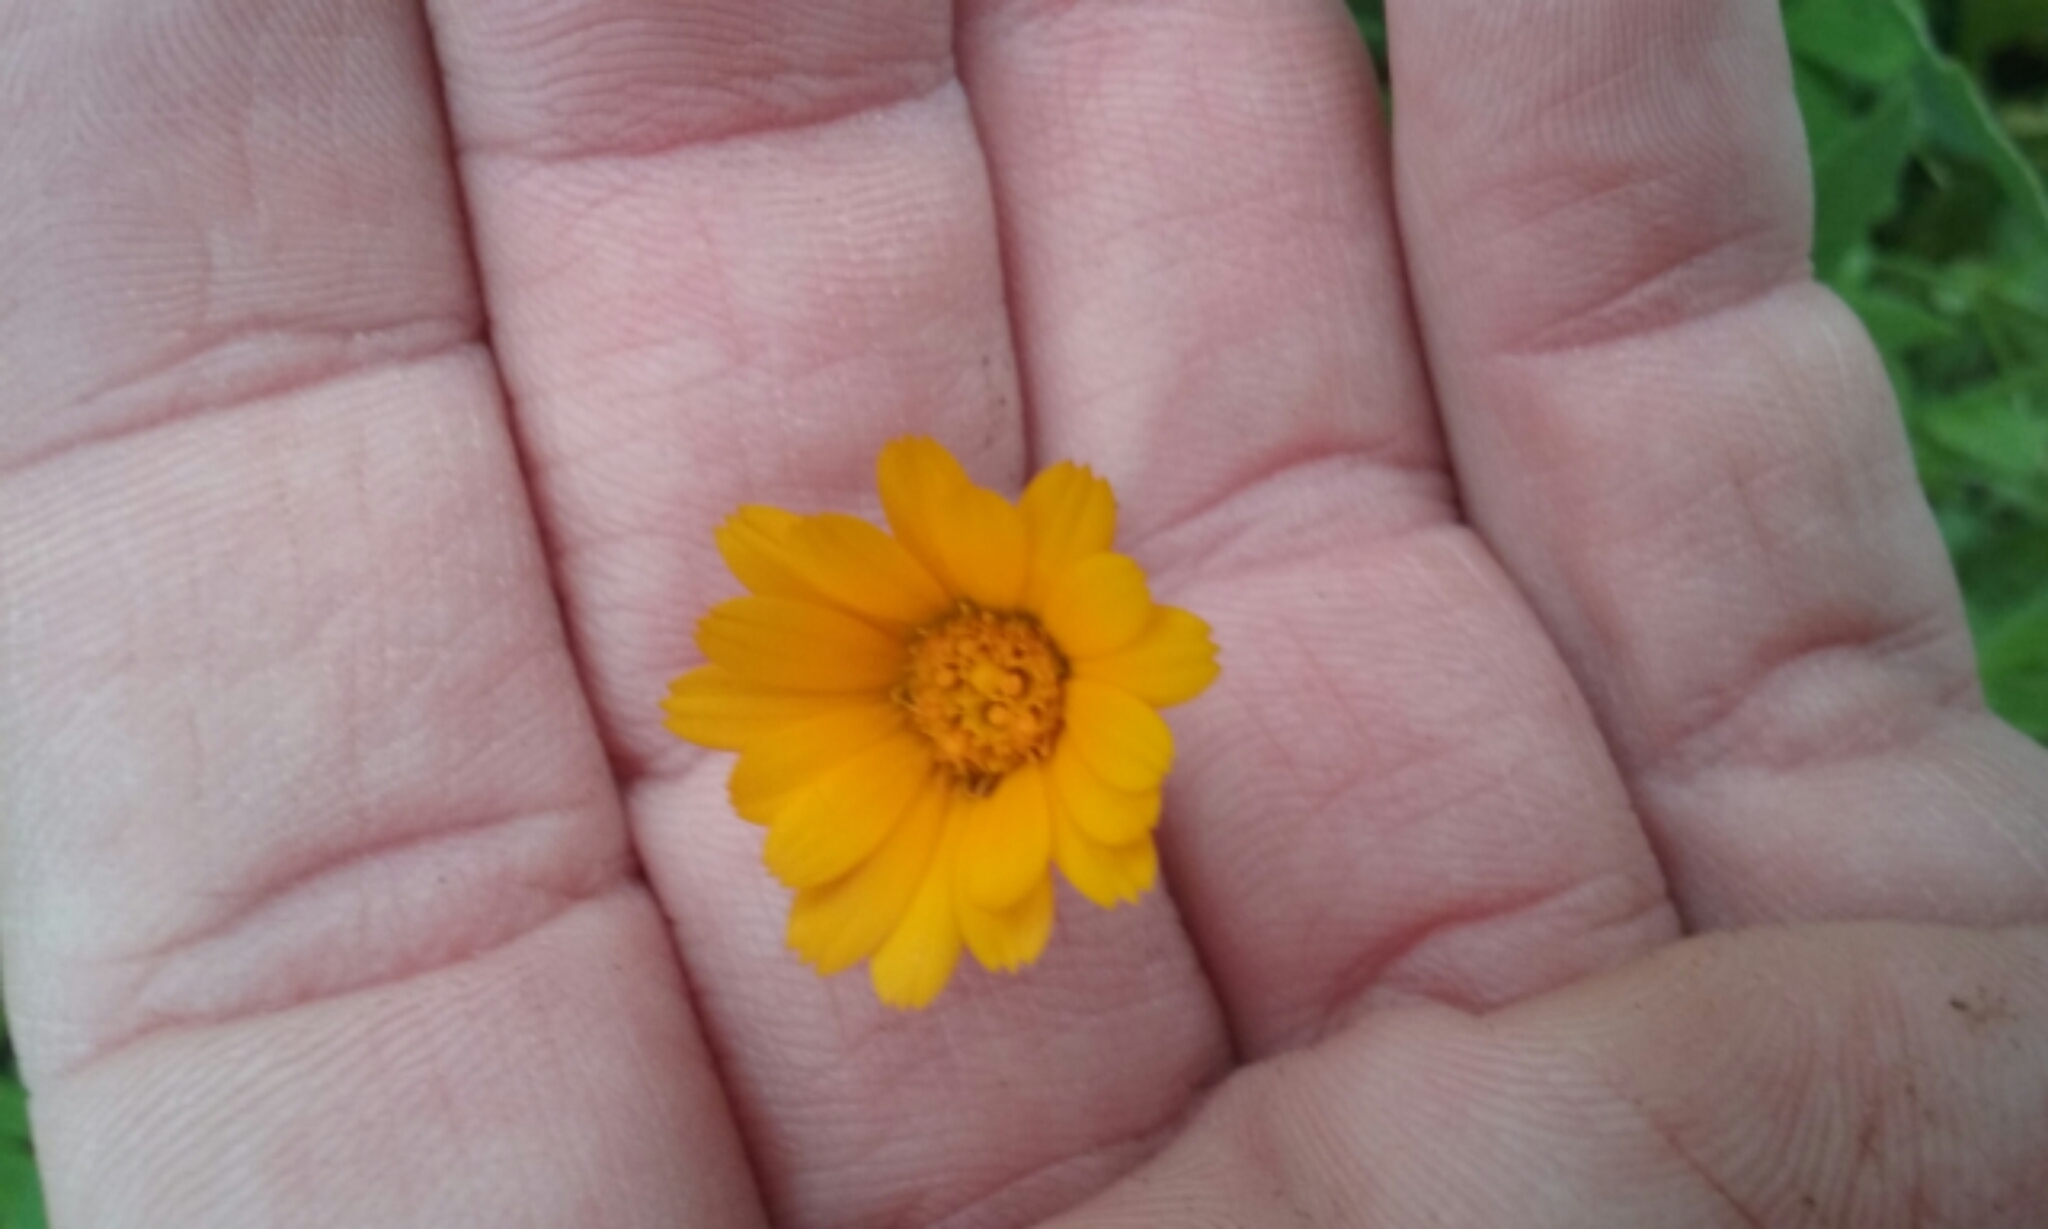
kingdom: Plantae
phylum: Tracheophyta
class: Magnoliopsida
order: Asterales
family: Asteraceae
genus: Calendula
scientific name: Calendula arvensis
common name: Field marigold
